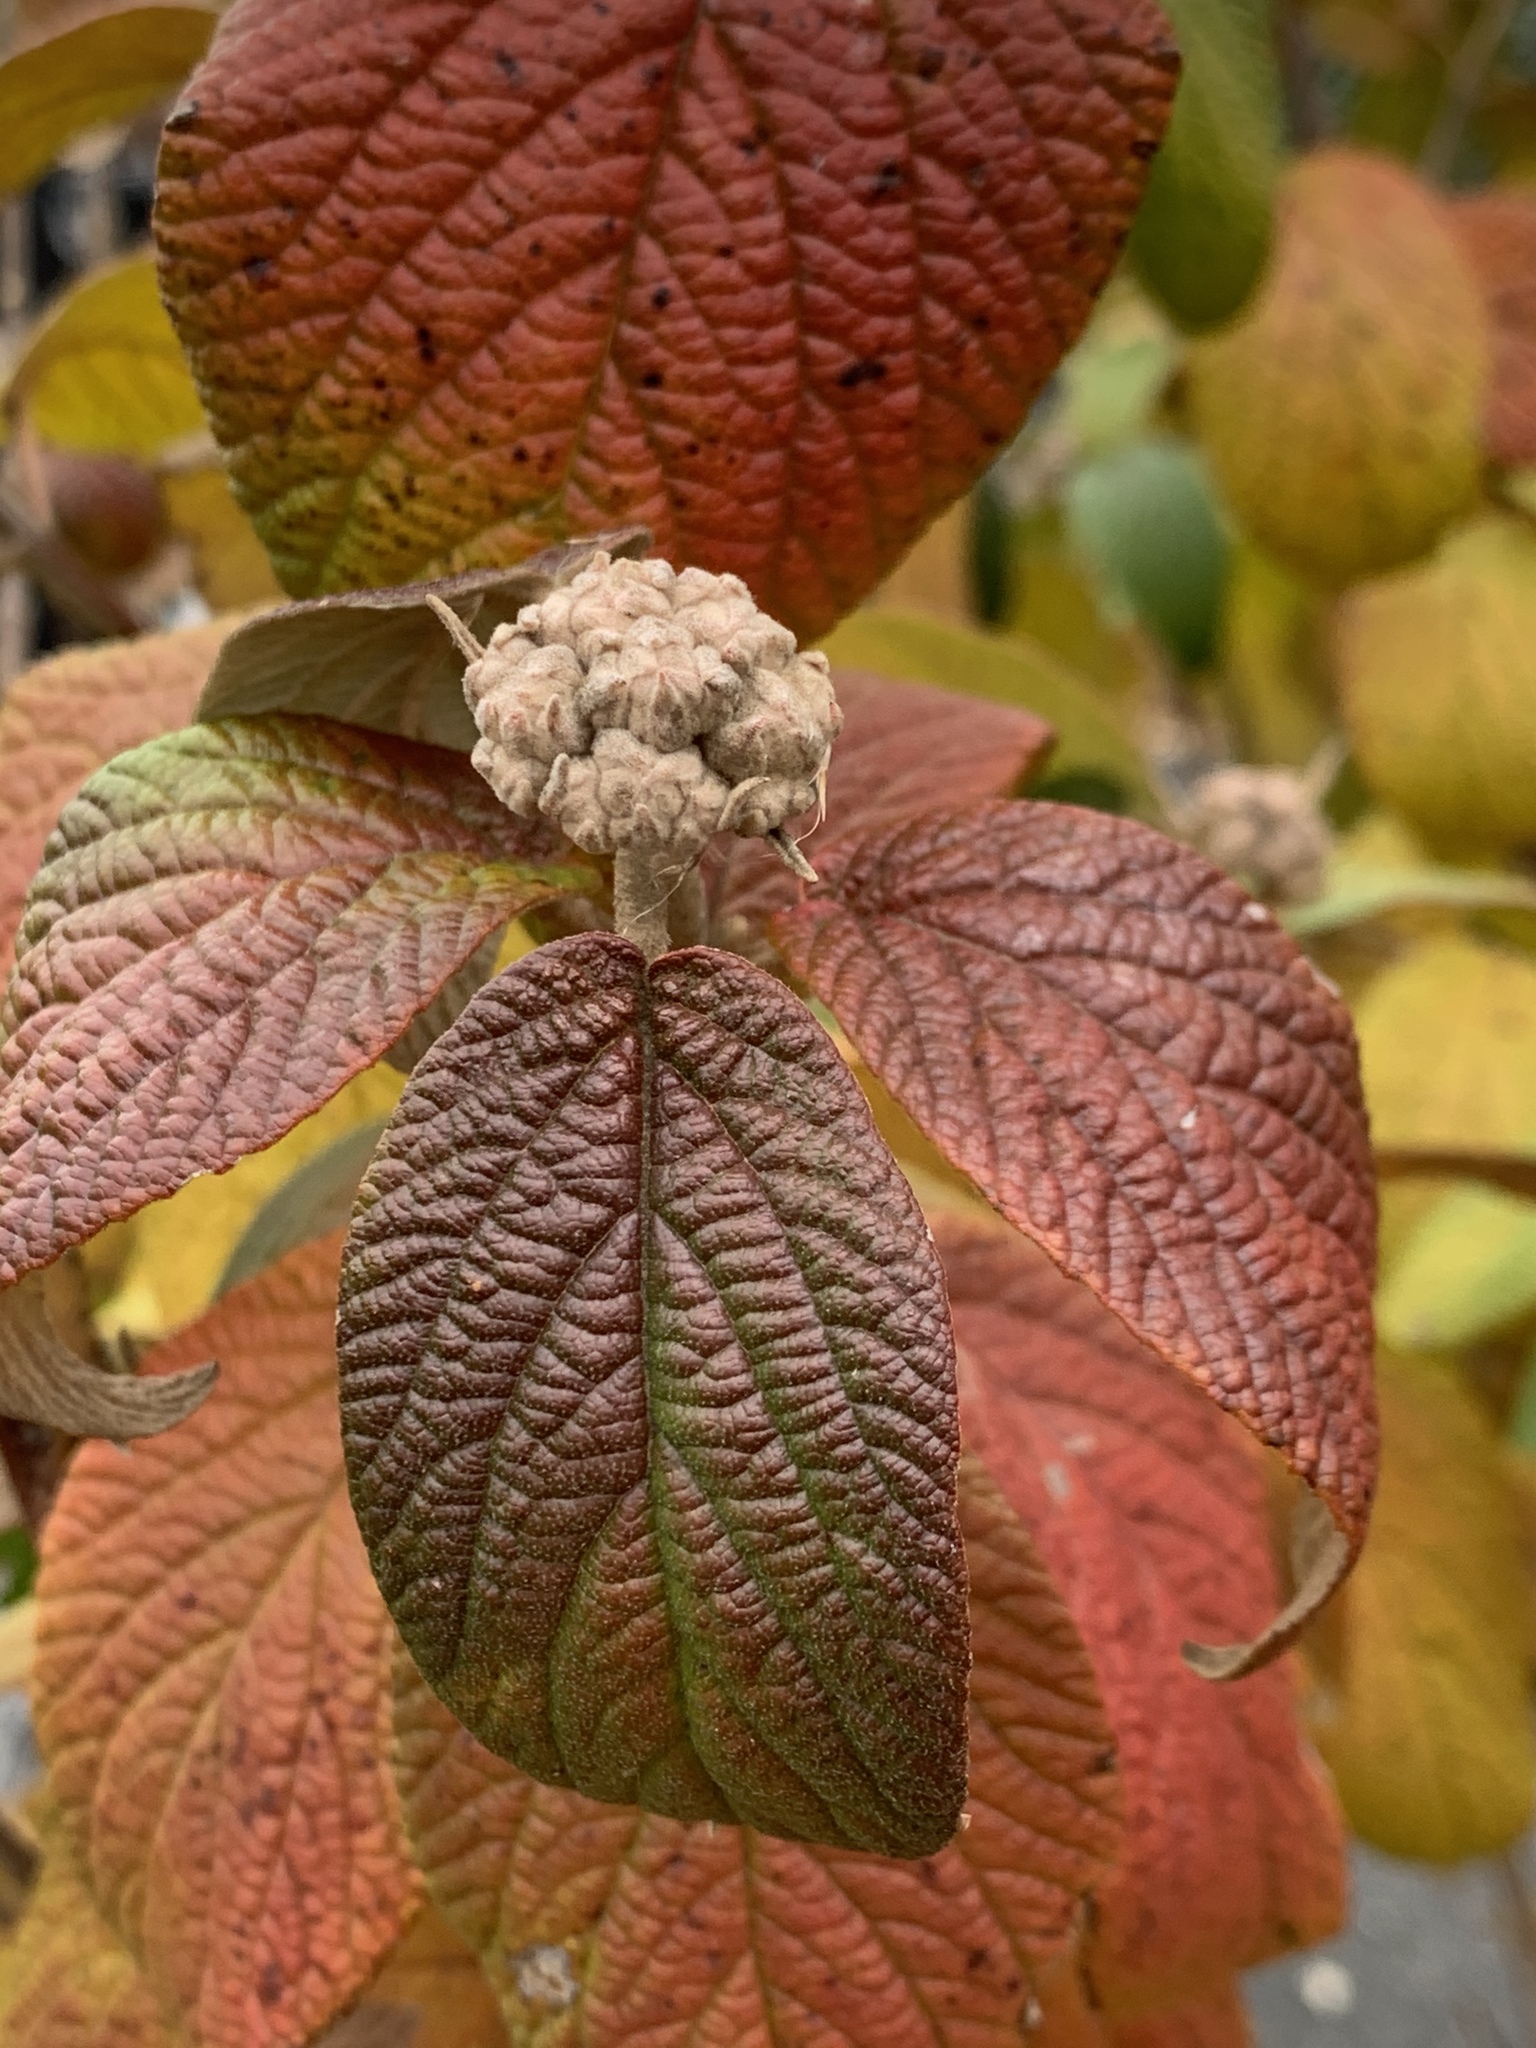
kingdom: Plantae
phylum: Tracheophyta
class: Magnoliopsida
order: Dipsacales
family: Viburnaceae
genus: Viburnum
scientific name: Viburnum rhytidophyllum
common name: Wrinkled viburnum
